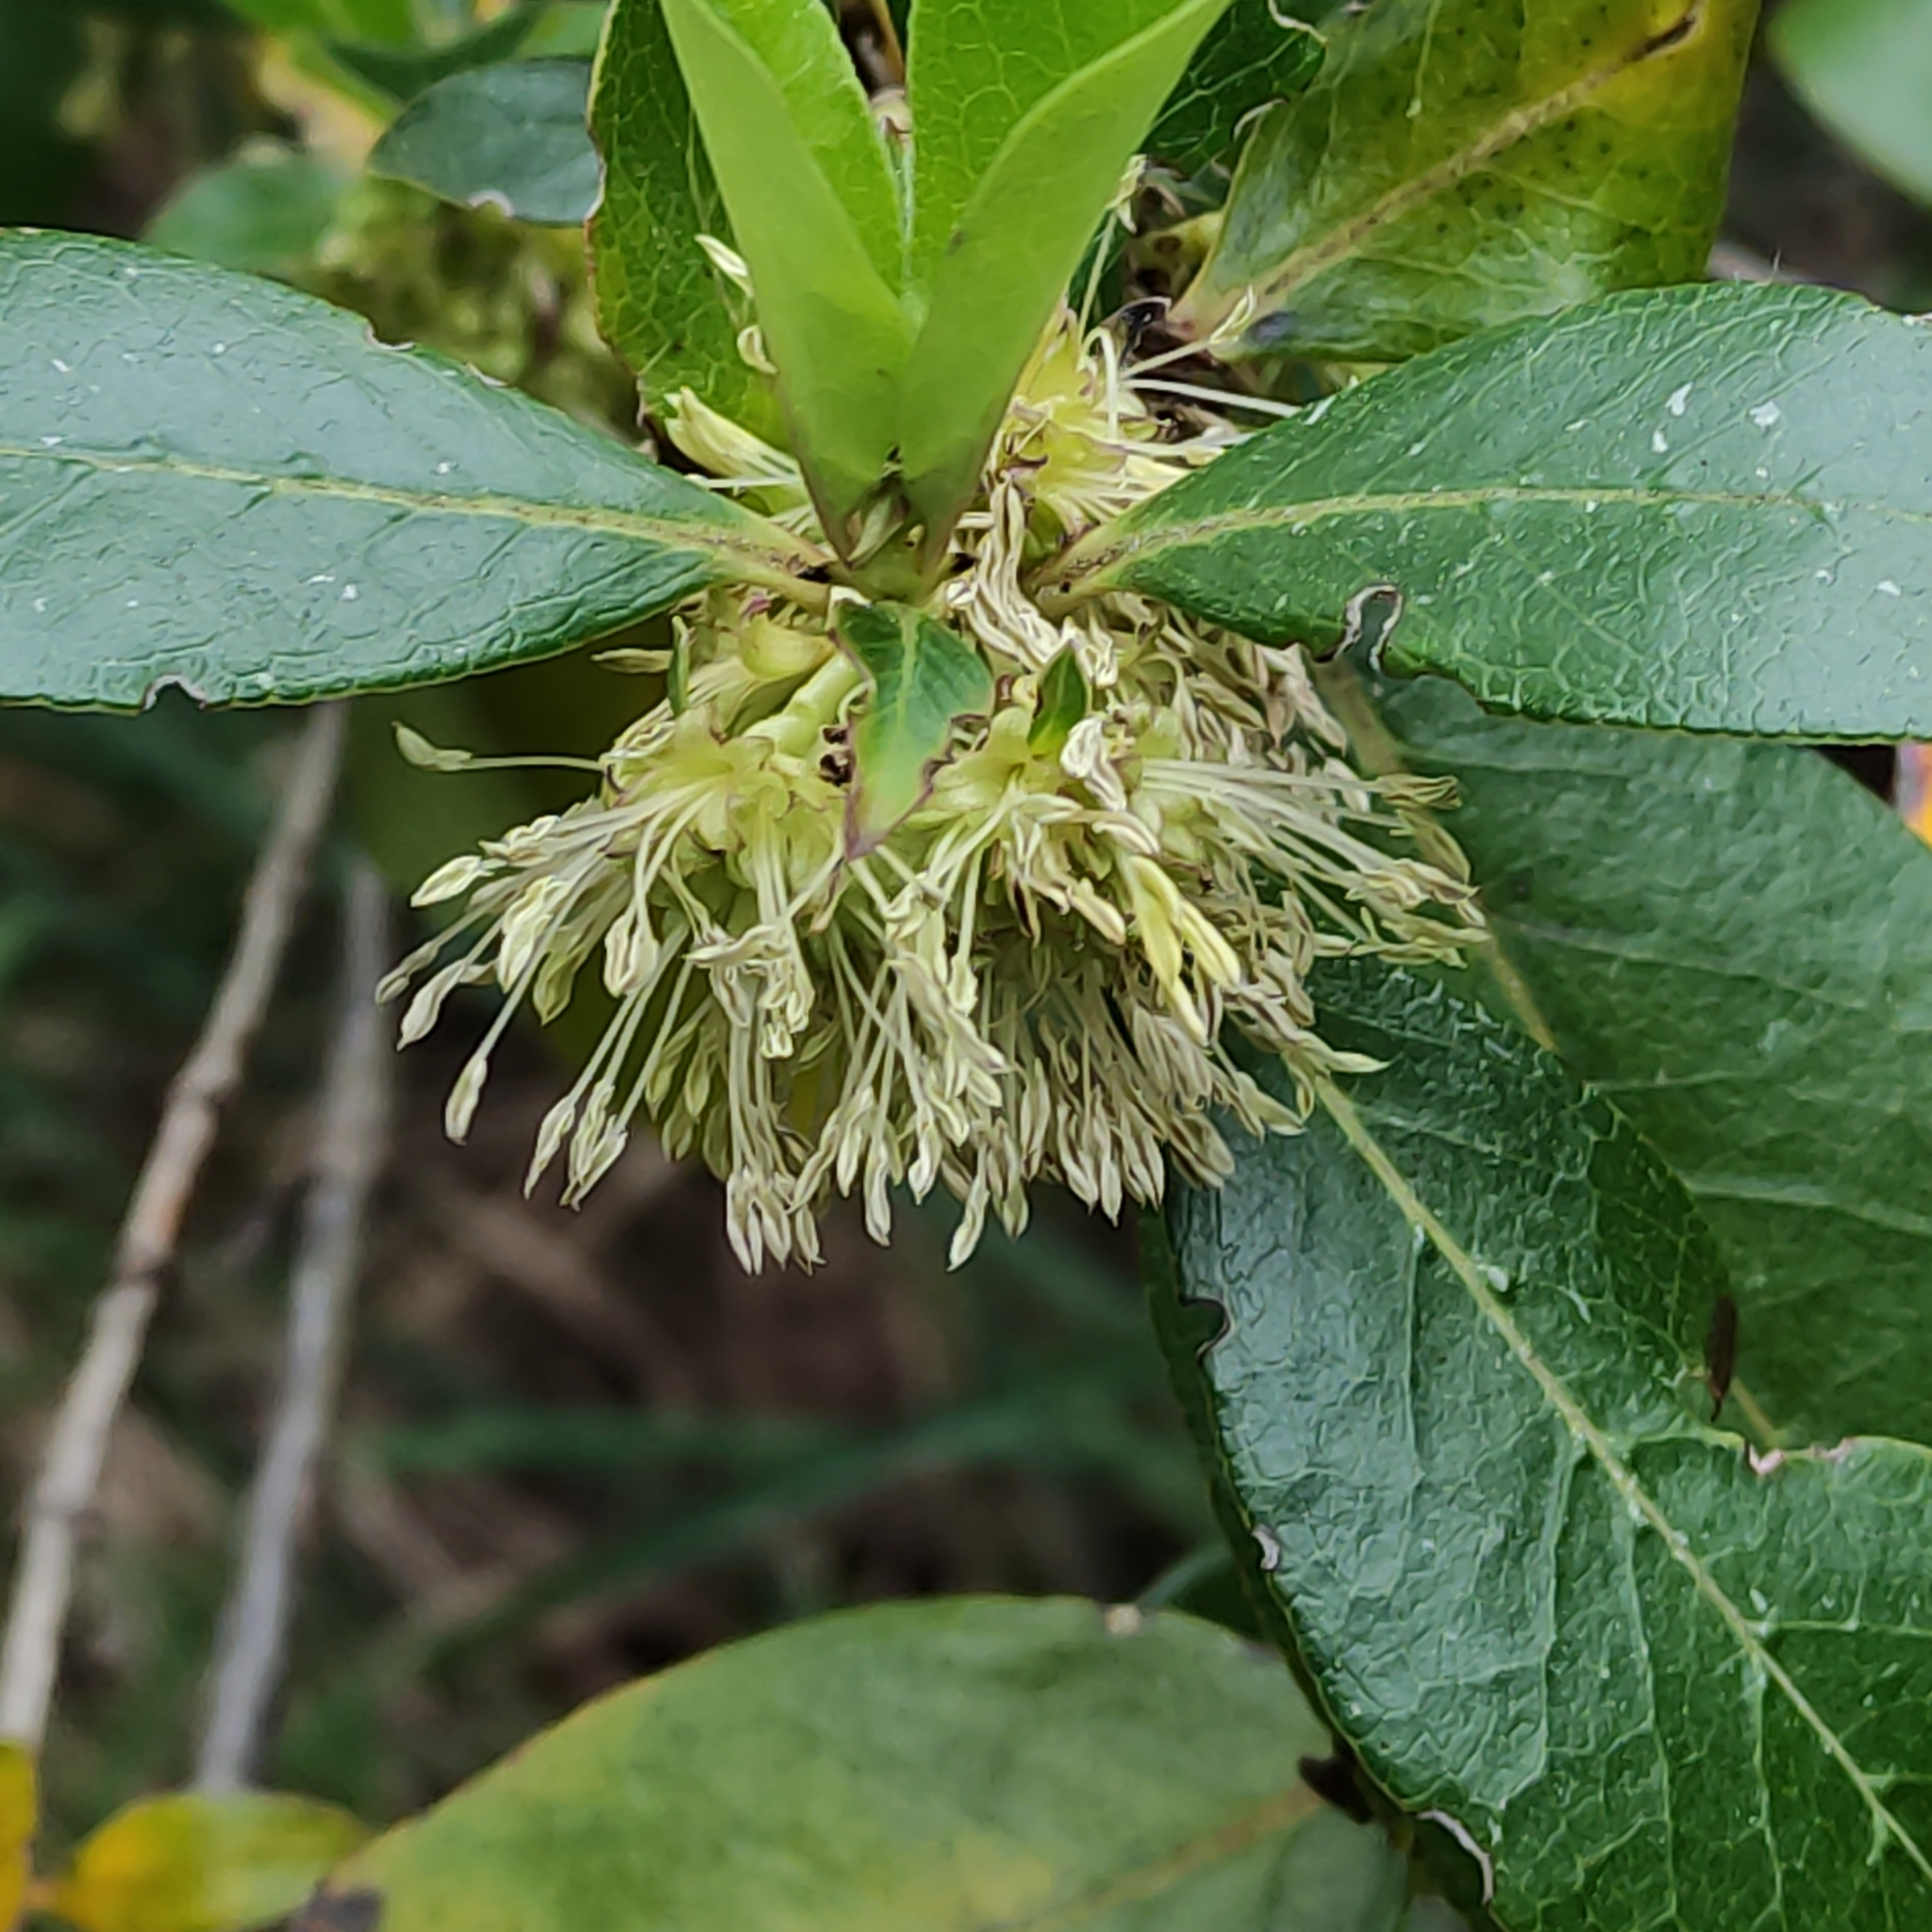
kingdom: Plantae
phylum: Tracheophyta
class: Magnoliopsida
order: Gentianales
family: Rubiaceae
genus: Coprosma
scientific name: Coprosma robusta
